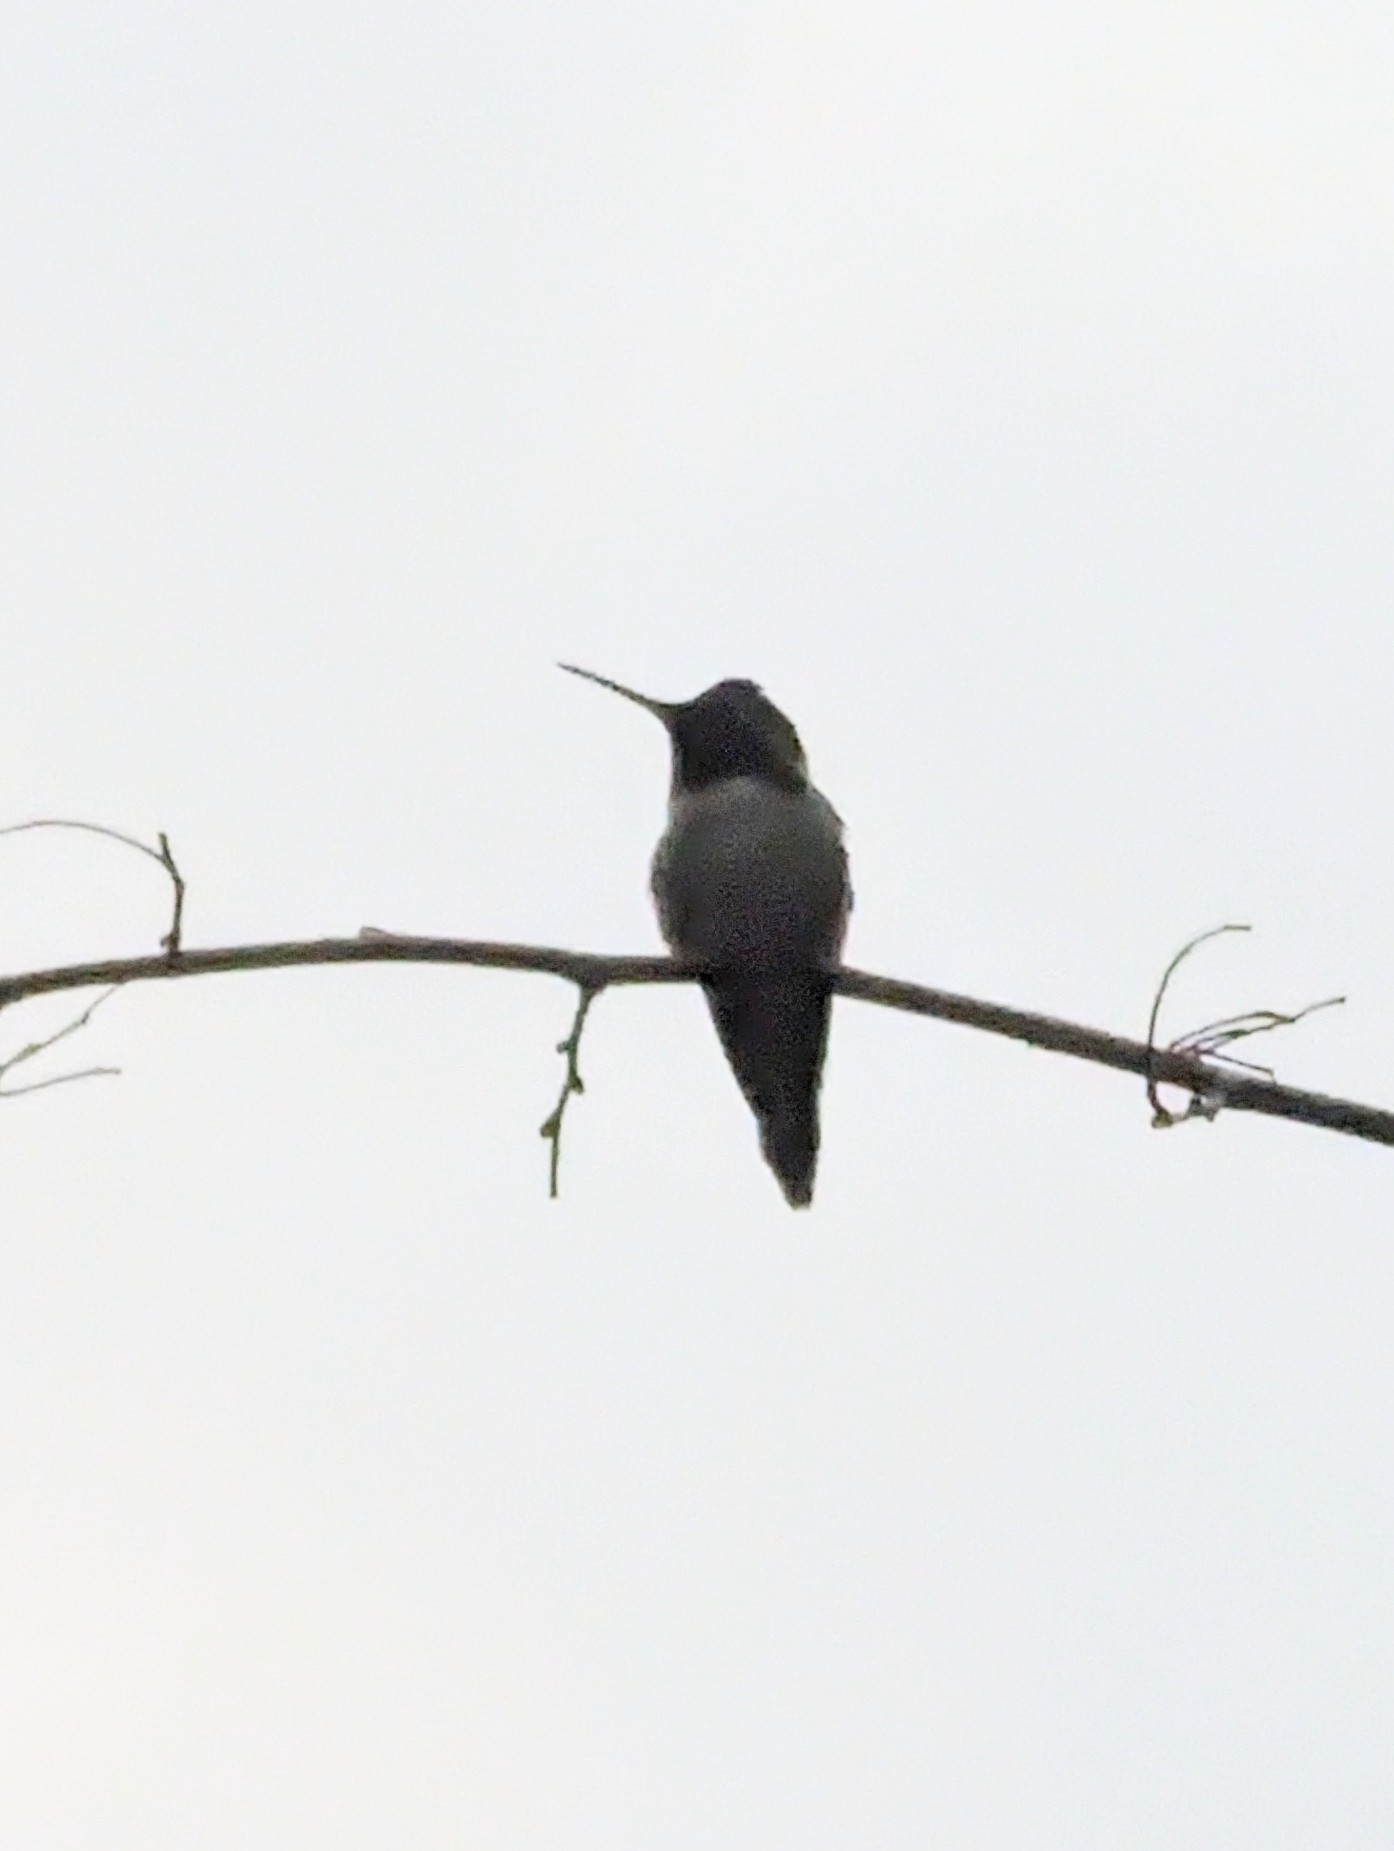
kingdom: Animalia
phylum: Chordata
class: Aves
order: Apodiformes
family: Trochilidae
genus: Calypte
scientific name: Calypte anna
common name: Anna's hummingbird
